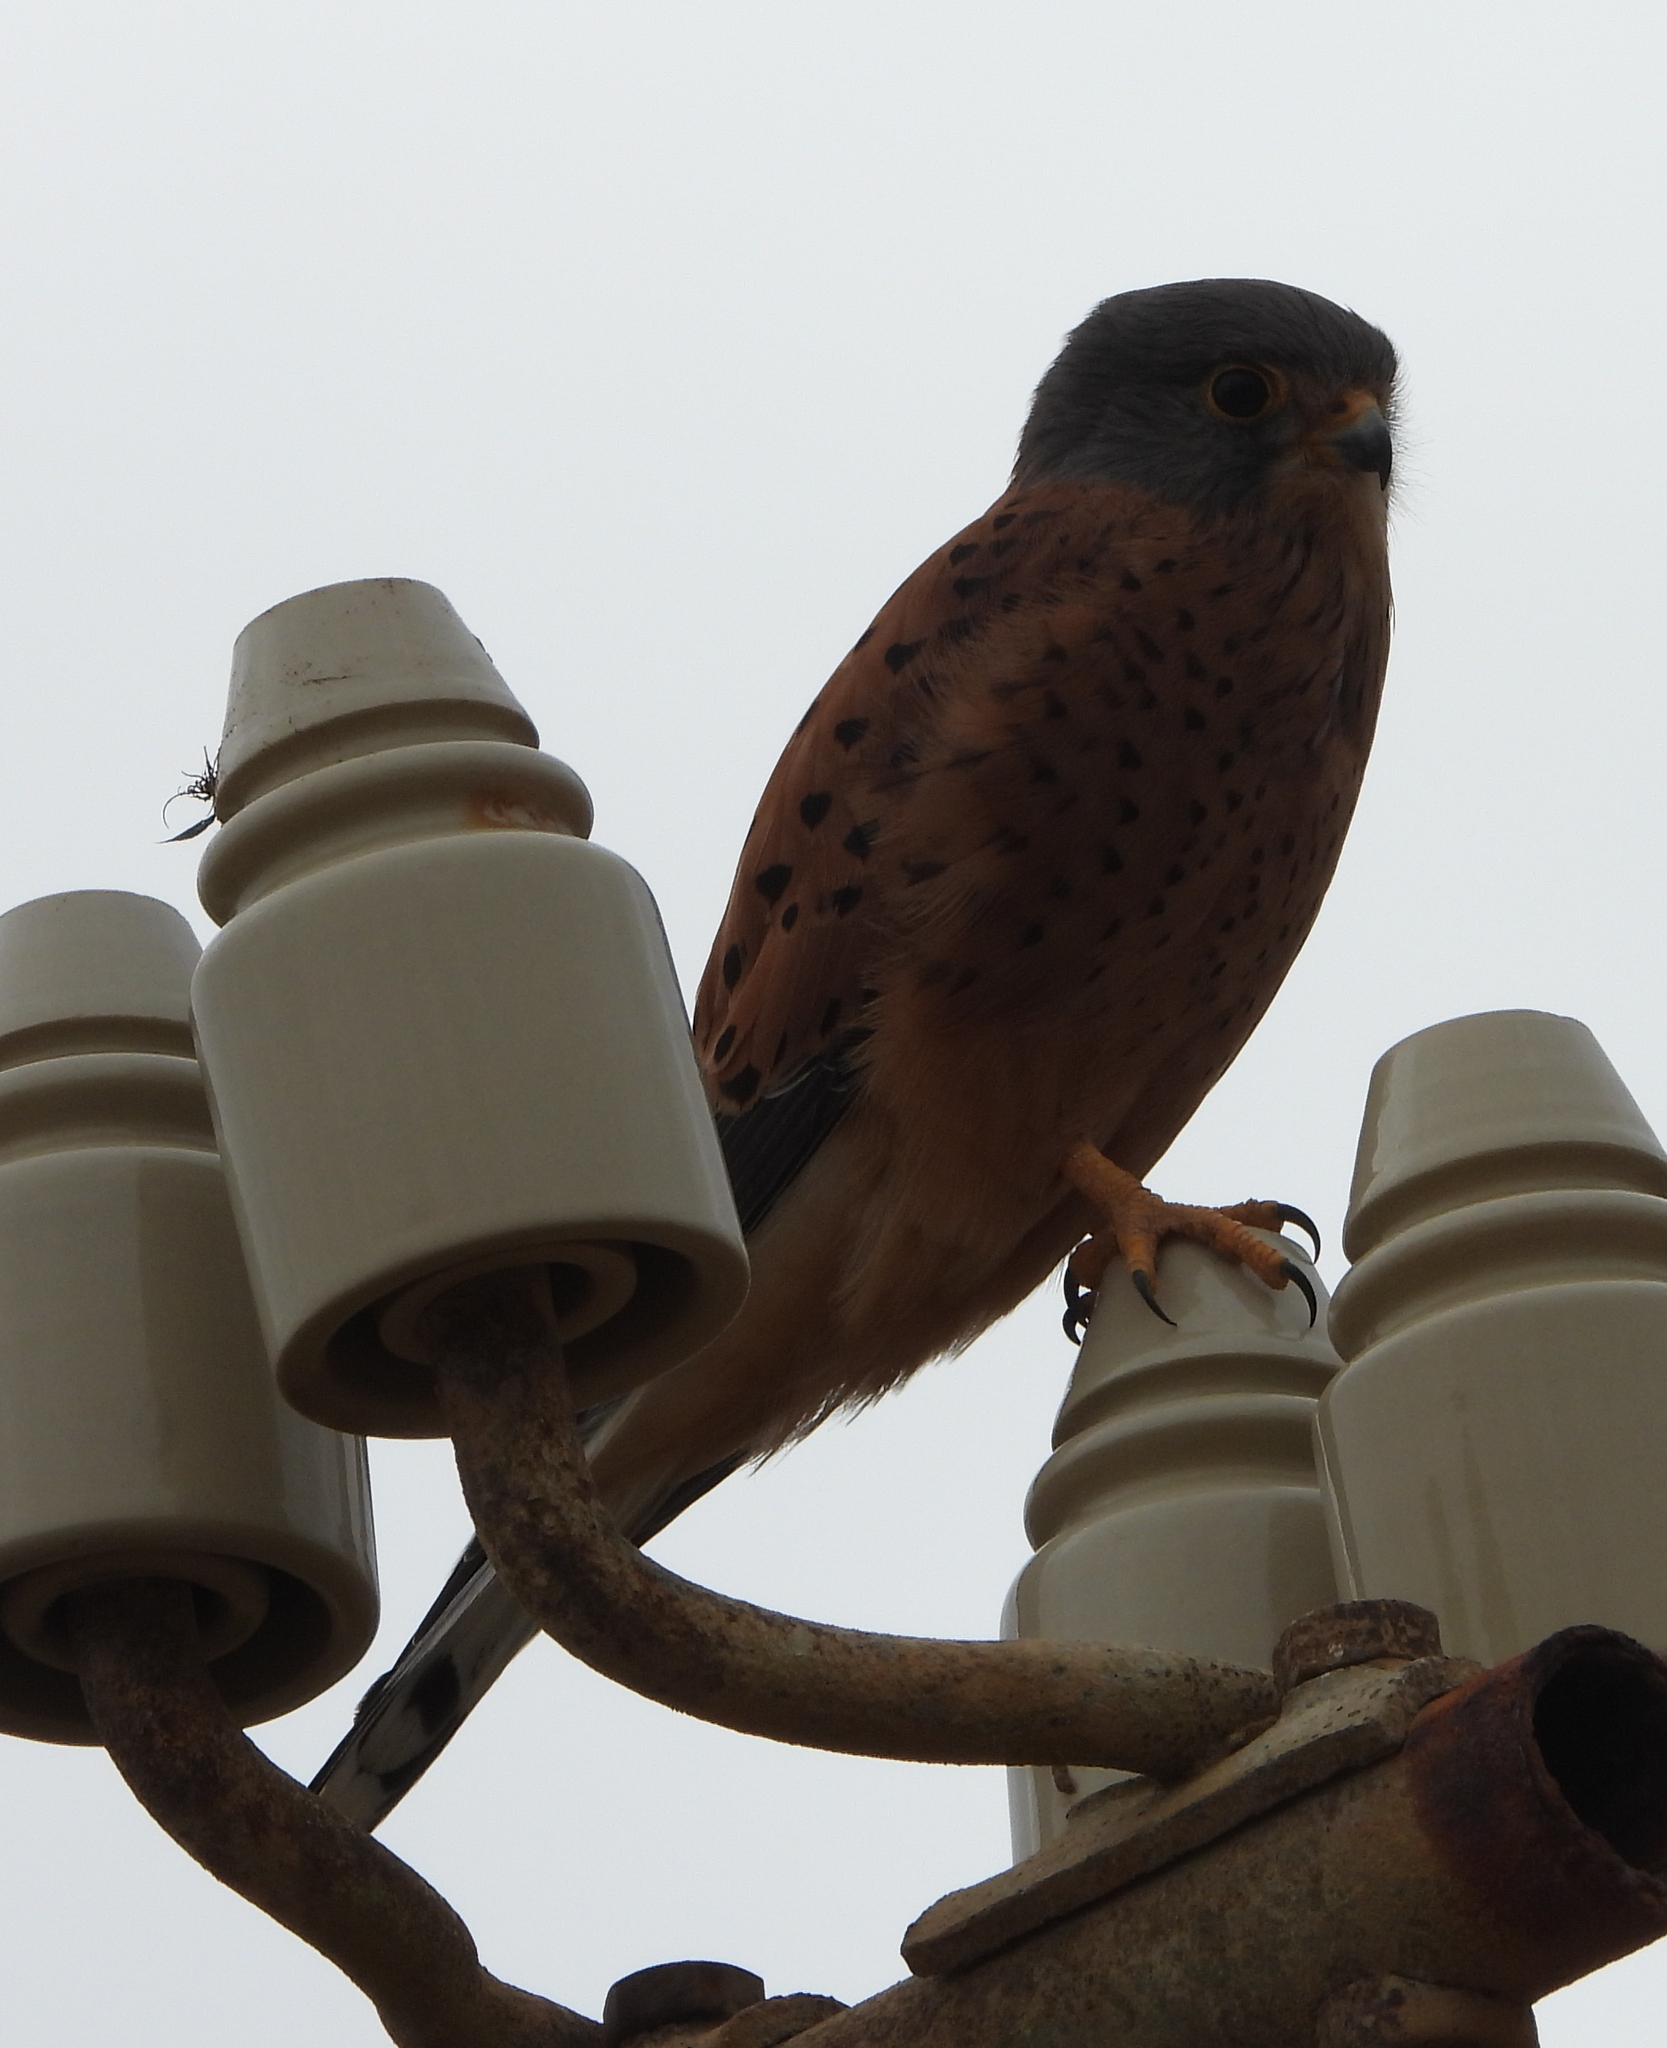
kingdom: Animalia
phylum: Chordata
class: Aves
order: Falconiformes
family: Falconidae
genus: Falco
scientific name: Falco rupicolus
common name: Rock kestrel
